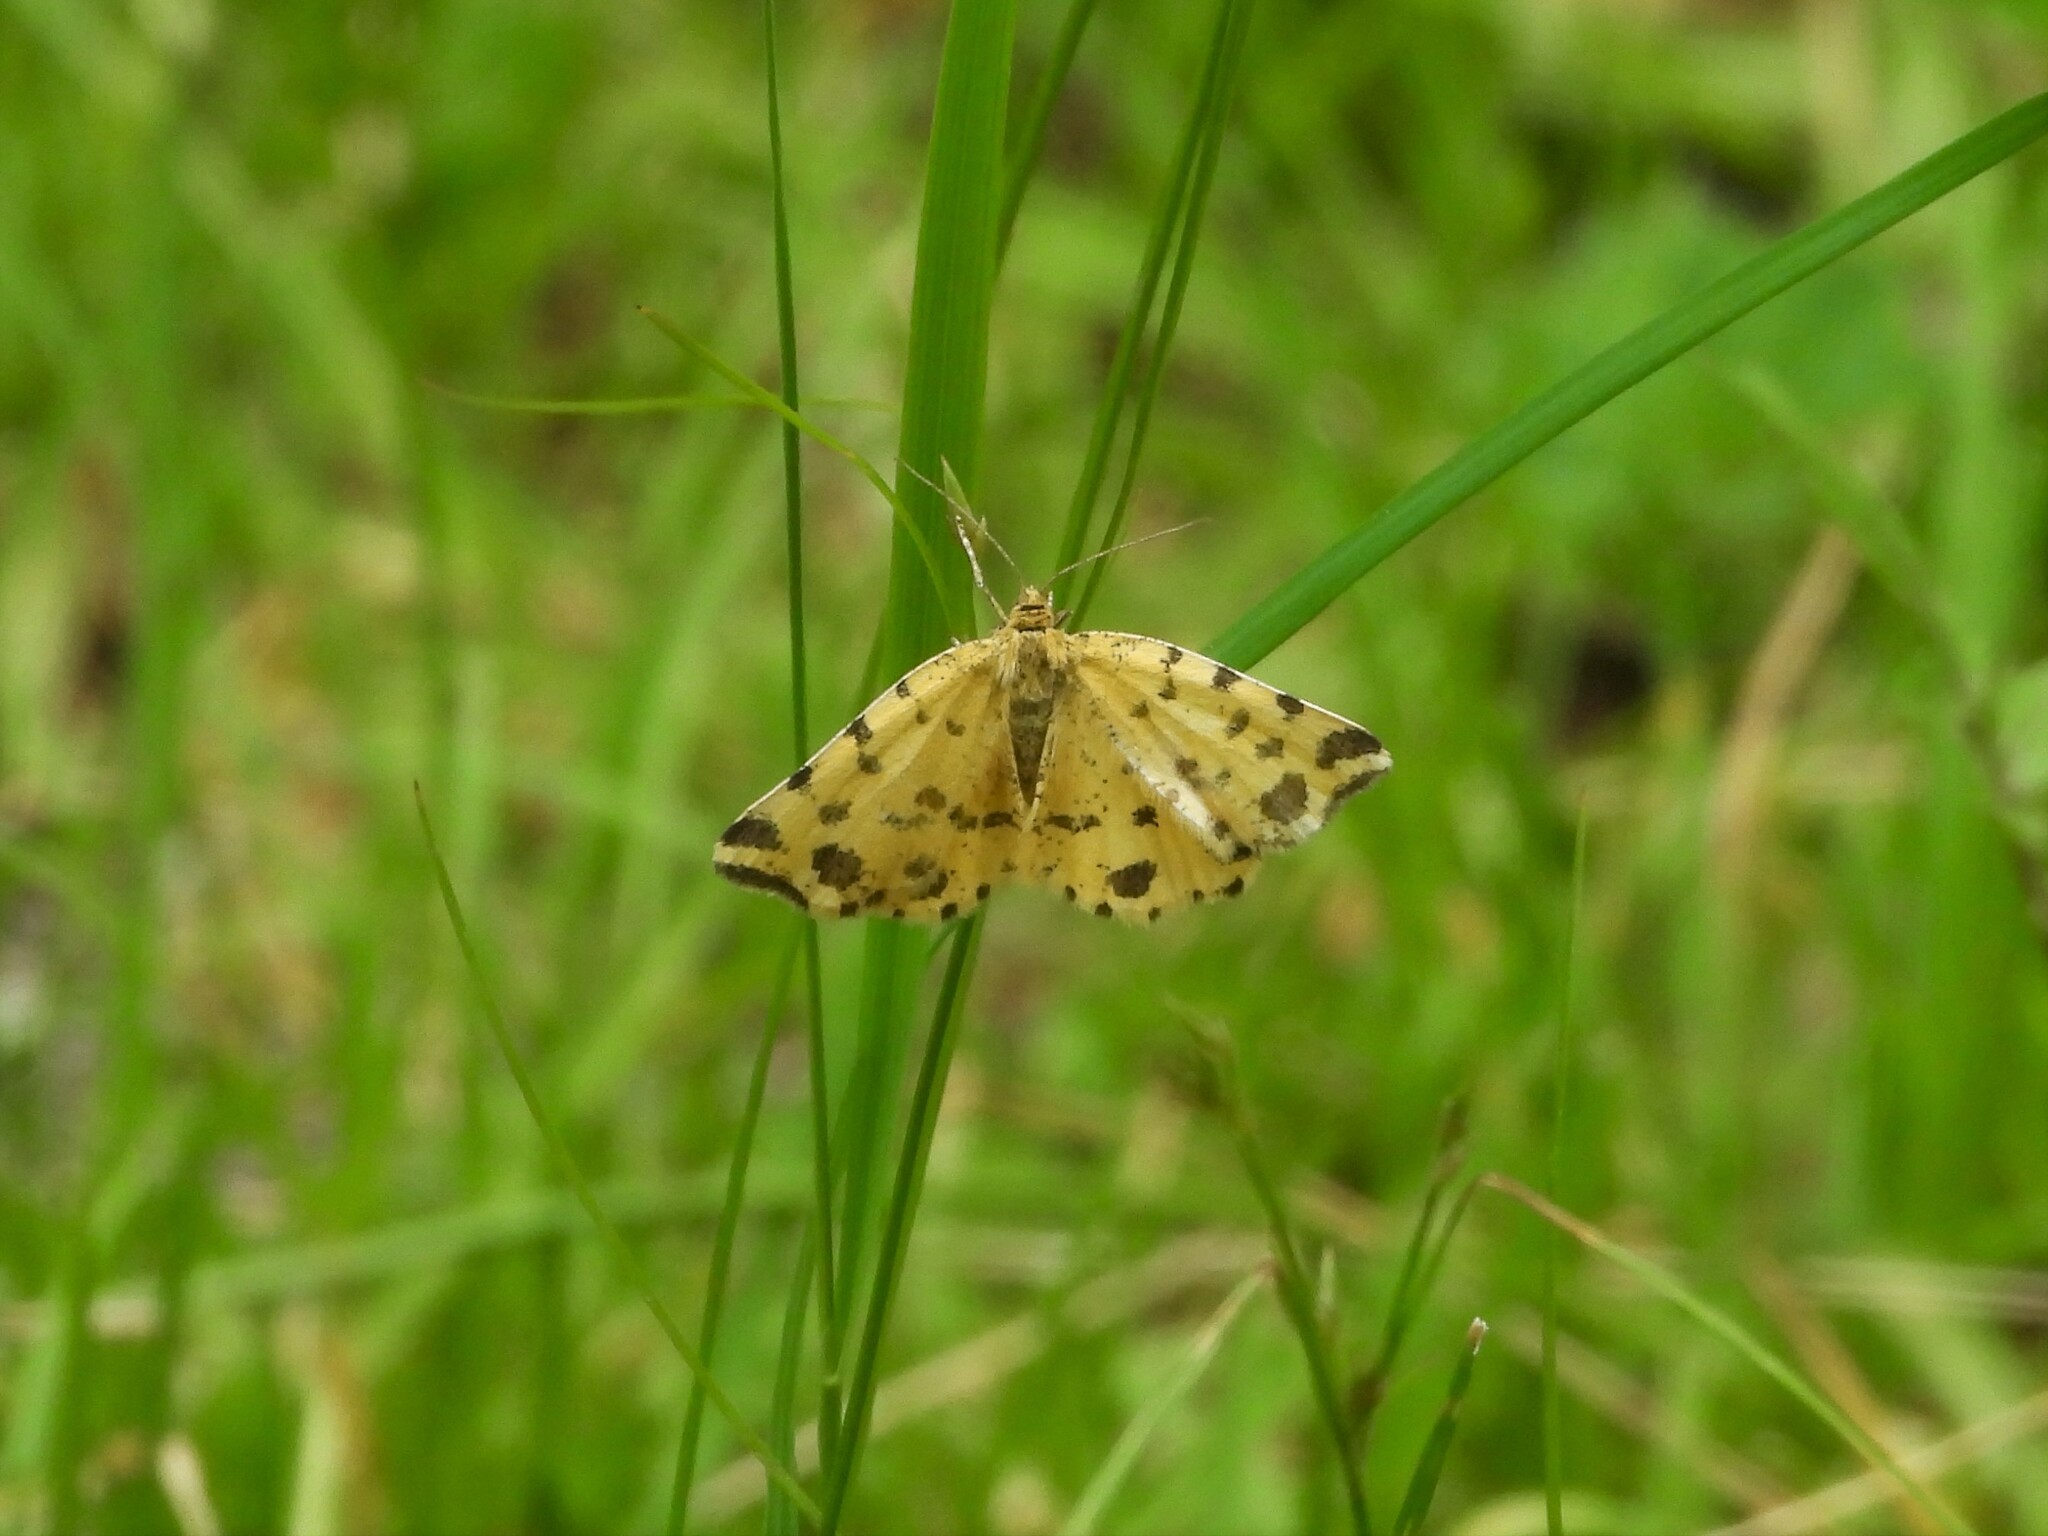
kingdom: Animalia
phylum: Arthropoda
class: Insecta
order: Lepidoptera
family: Geometridae
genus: Pseudopanthera
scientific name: Pseudopanthera macularia
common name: Speckled yellow
